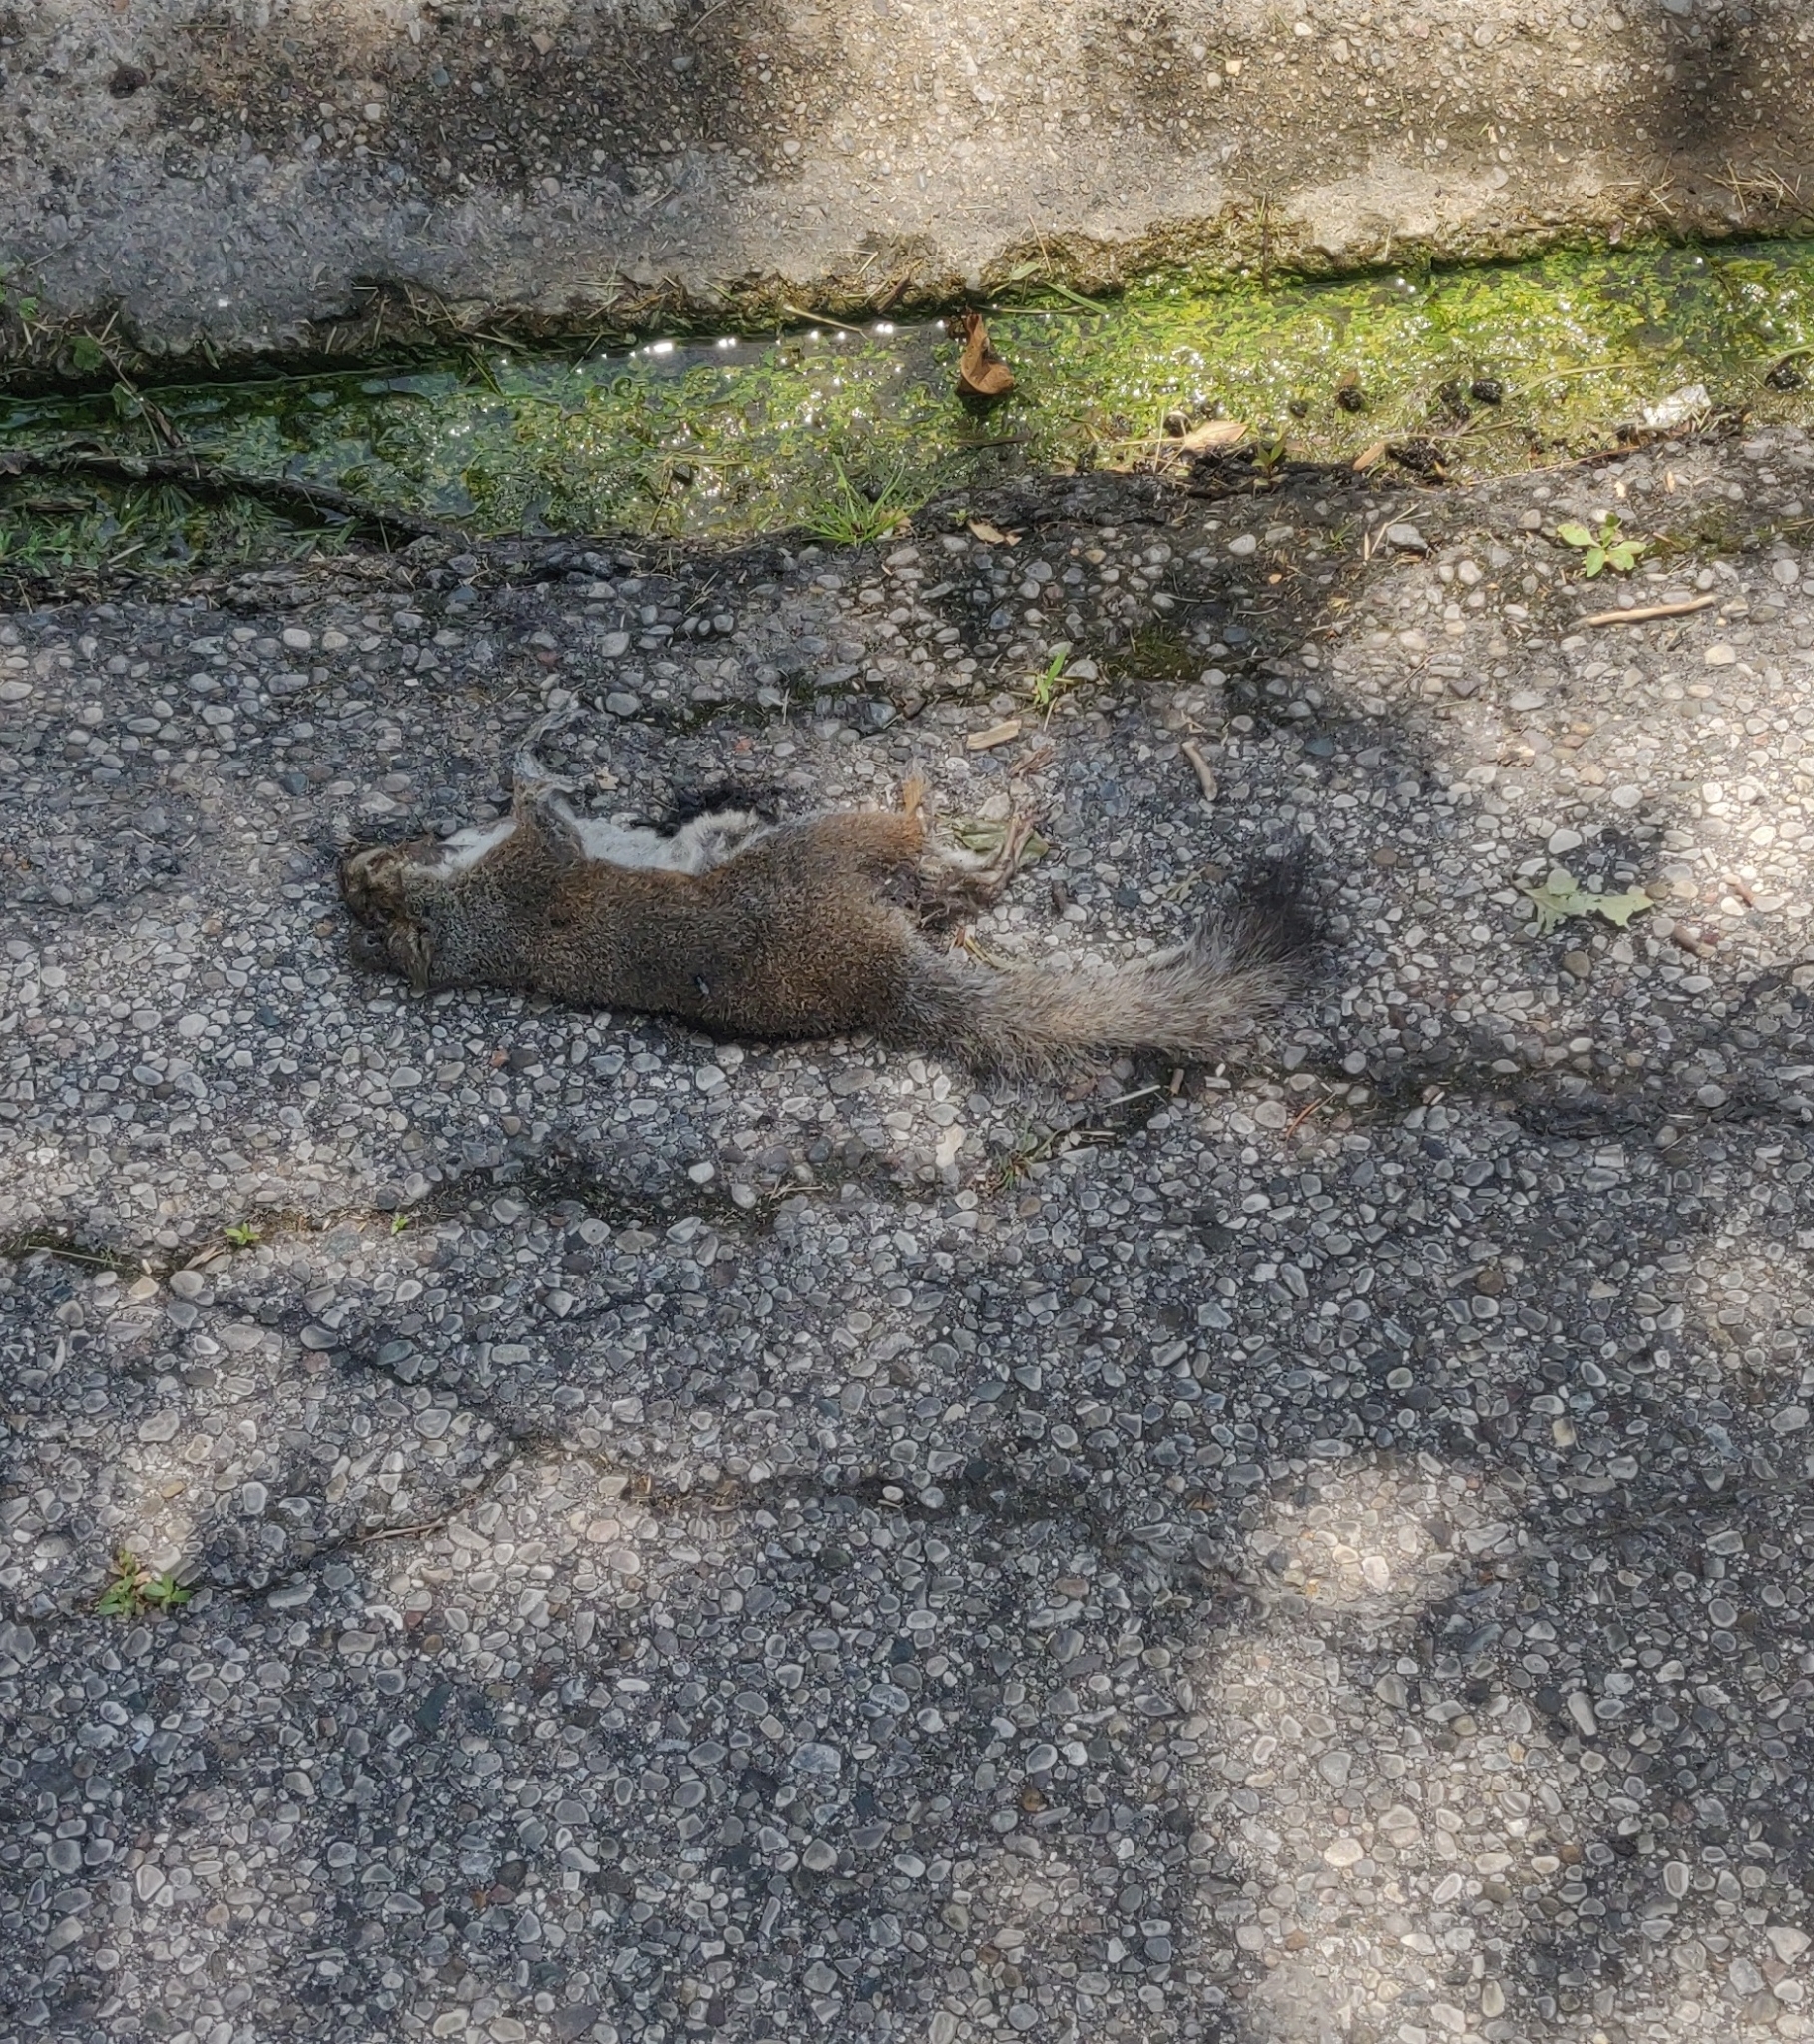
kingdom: Animalia
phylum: Chordata
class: Mammalia
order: Rodentia
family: Sciuridae
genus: Sciurus
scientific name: Sciurus carolinensis
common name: Eastern gray squirrel
